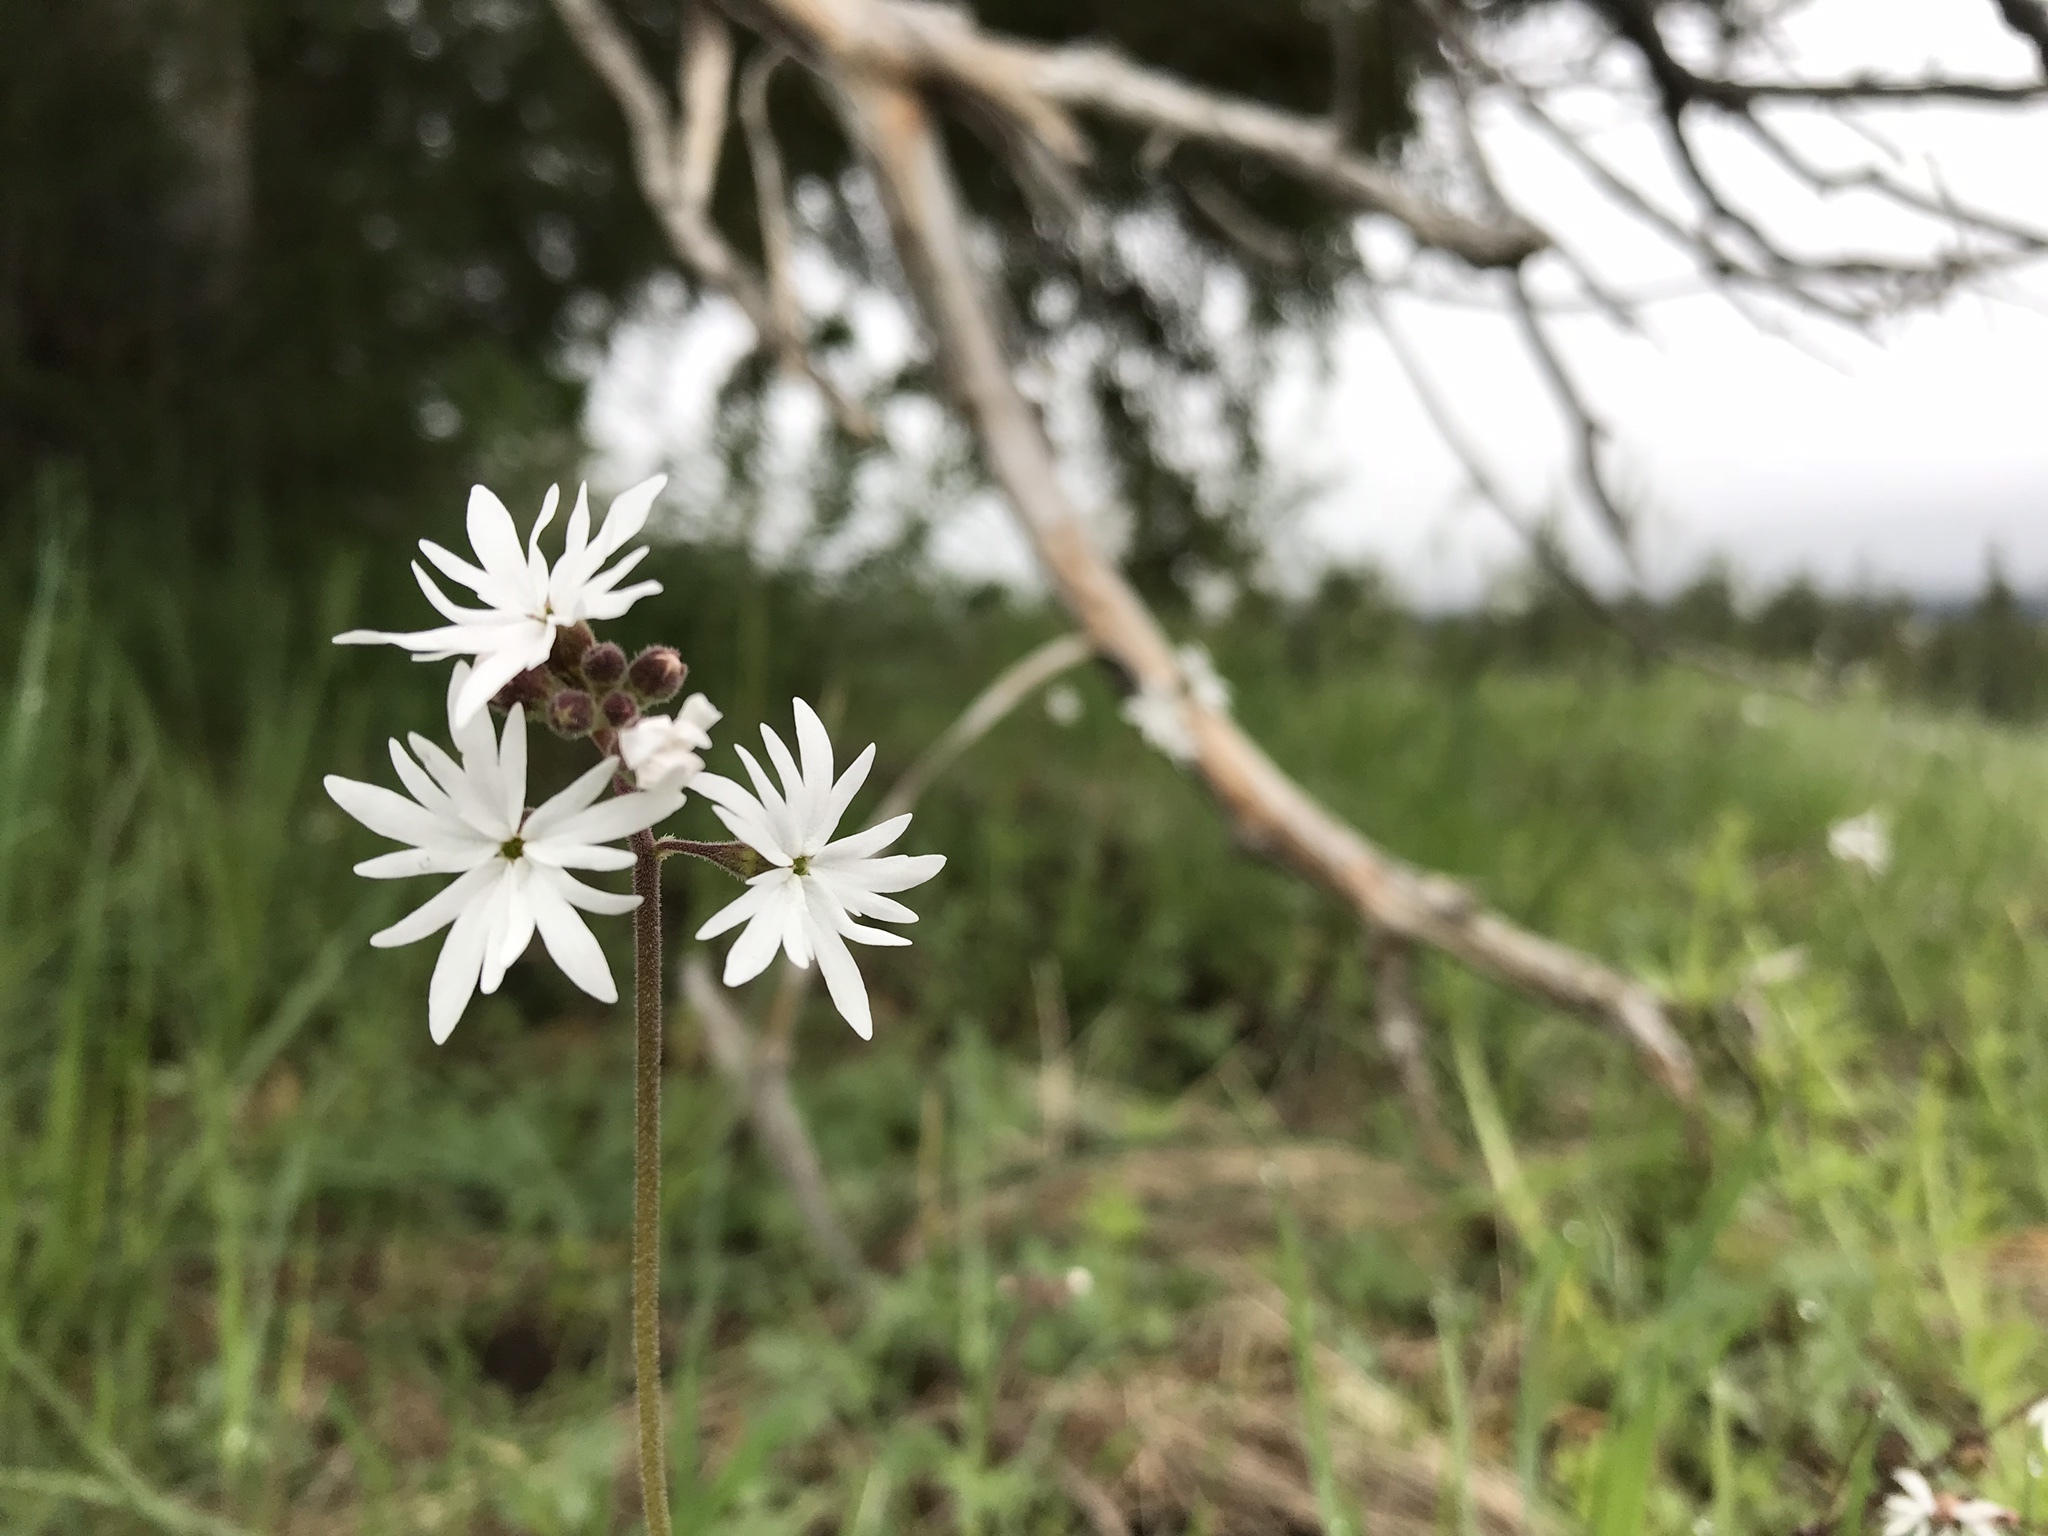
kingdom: Plantae
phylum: Tracheophyta
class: Magnoliopsida
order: Saxifragales
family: Saxifragaceae
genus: Lithophragma
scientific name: Lithophragma parviflorum
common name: Small-flowered fringe-cup
